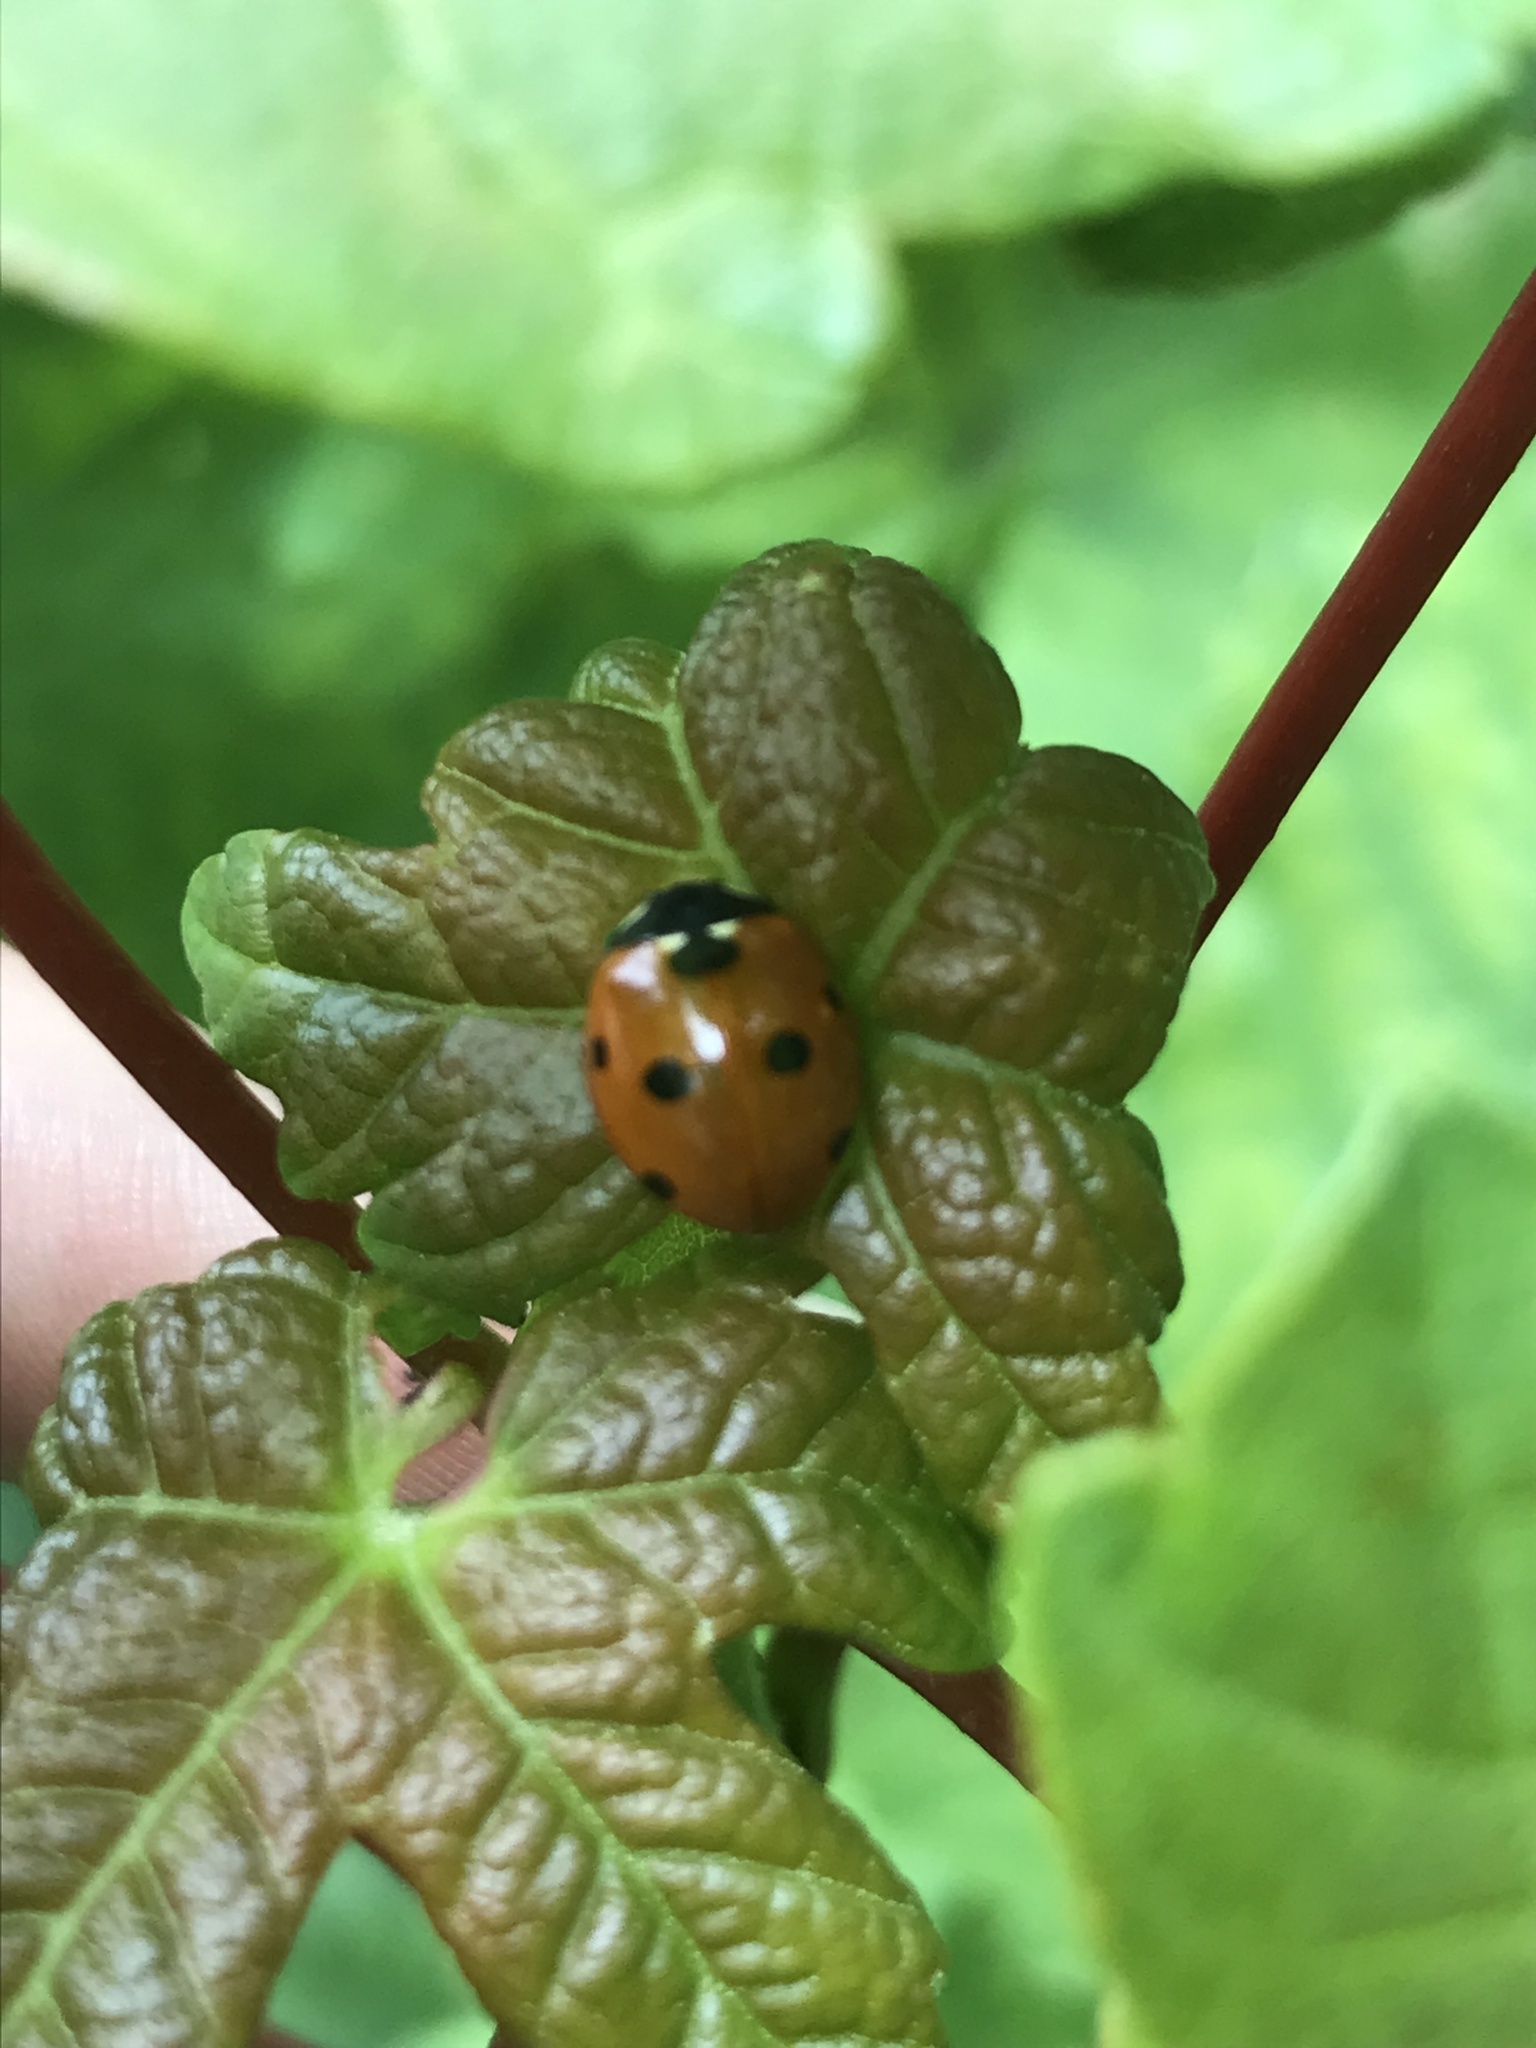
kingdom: Animalia
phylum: Arthropoda
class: Insecta
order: Coleoptera
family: Coccinellidae
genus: Coccinella
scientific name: Coccinella septempunctata
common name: Sevenspotted lady beetle
